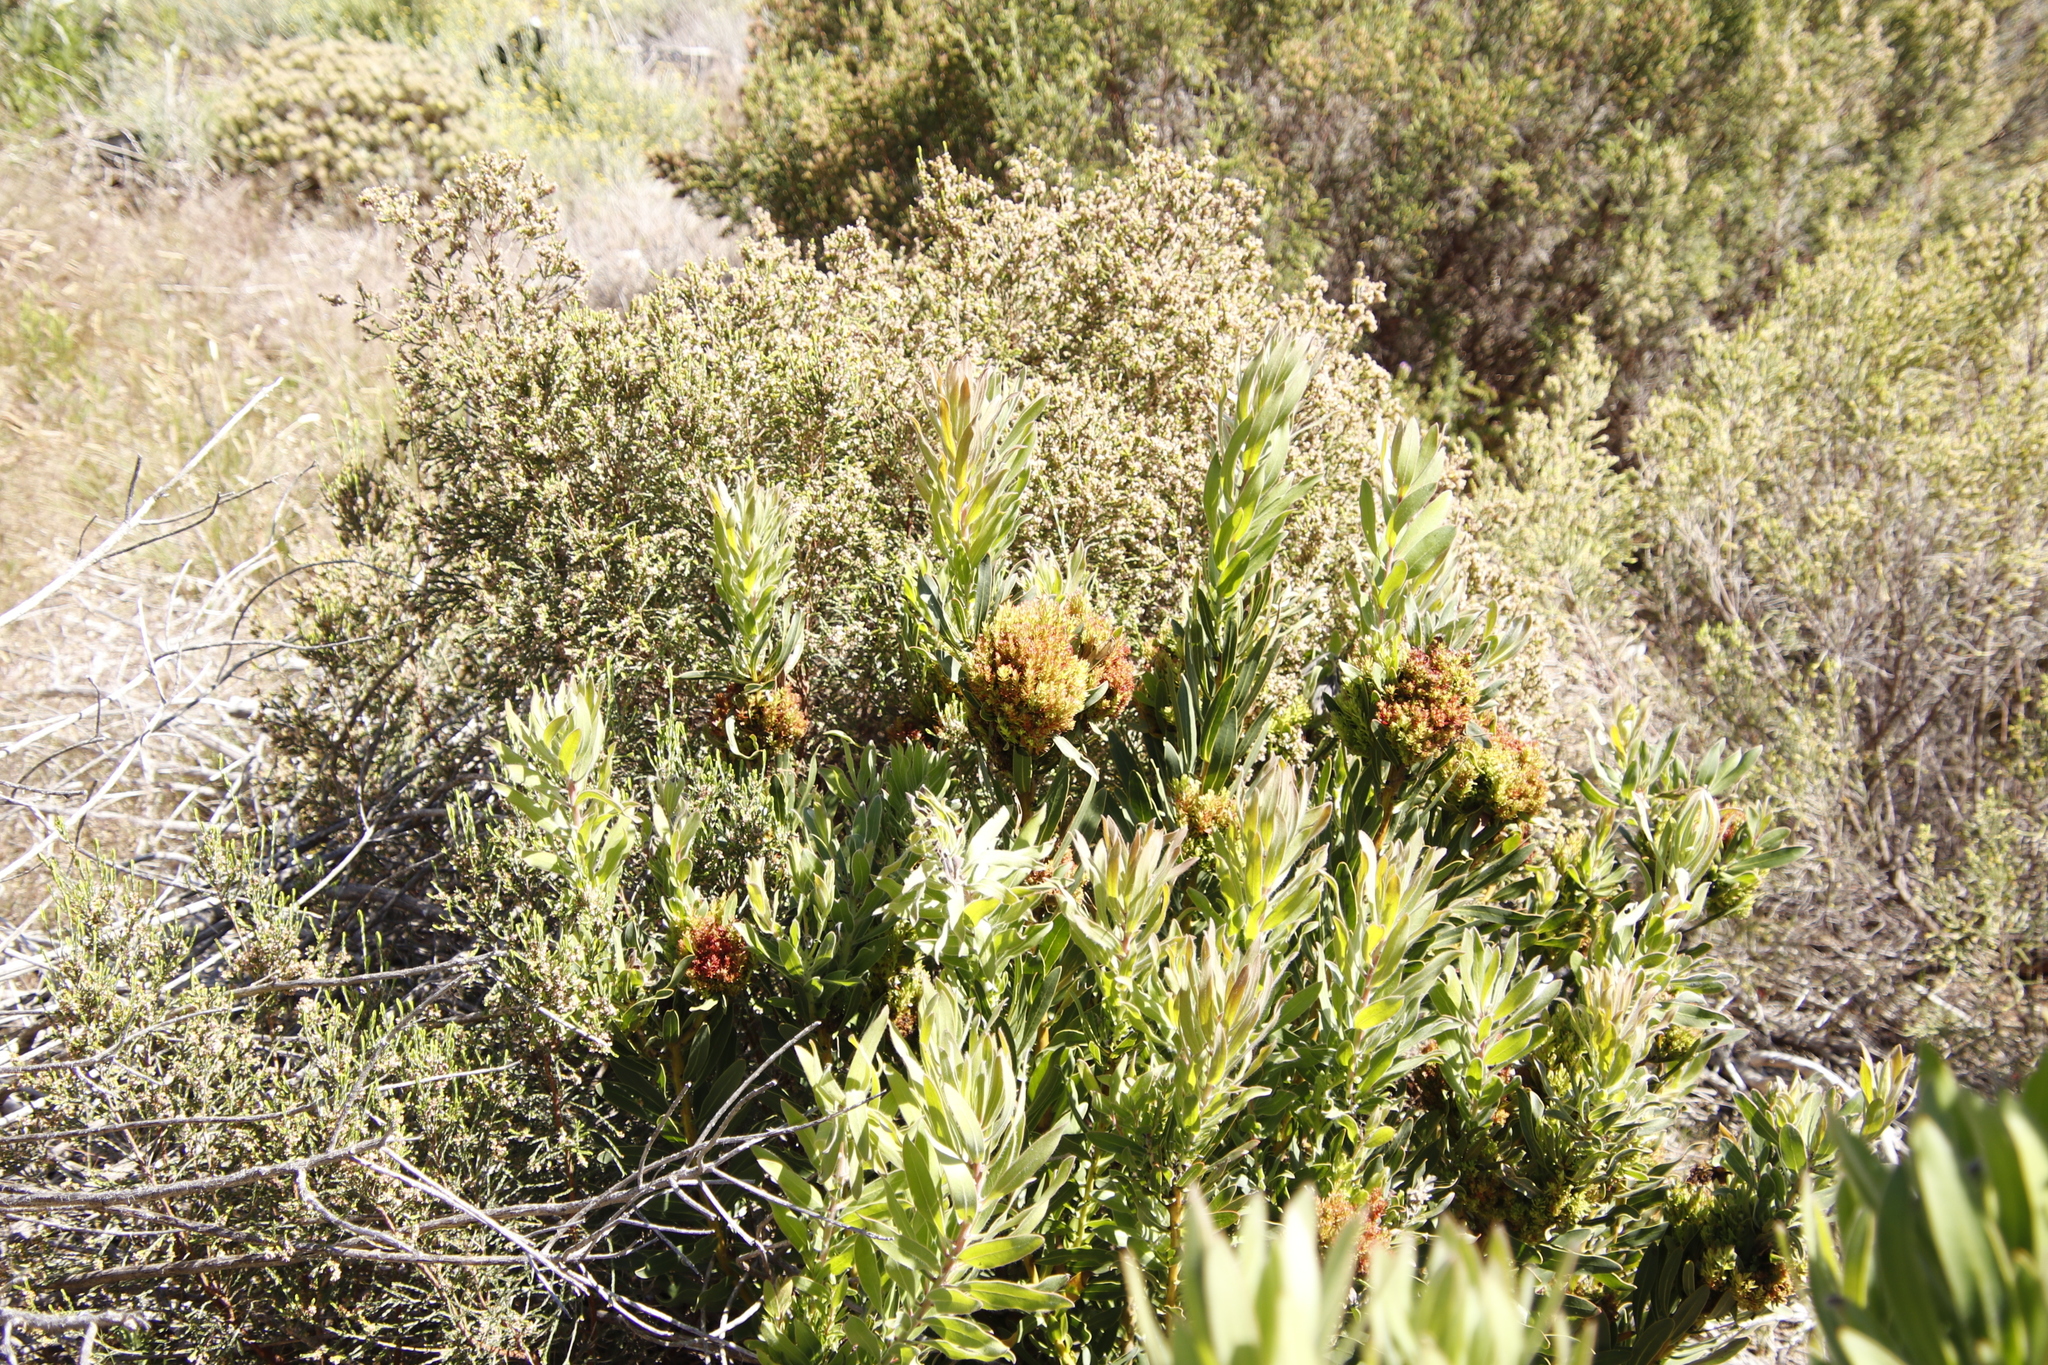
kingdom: Bacteria
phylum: Firmicutes
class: Bacilli
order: Acholeplasmatales
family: Acholeplasmataceae
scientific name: Acholeplasmataceae
